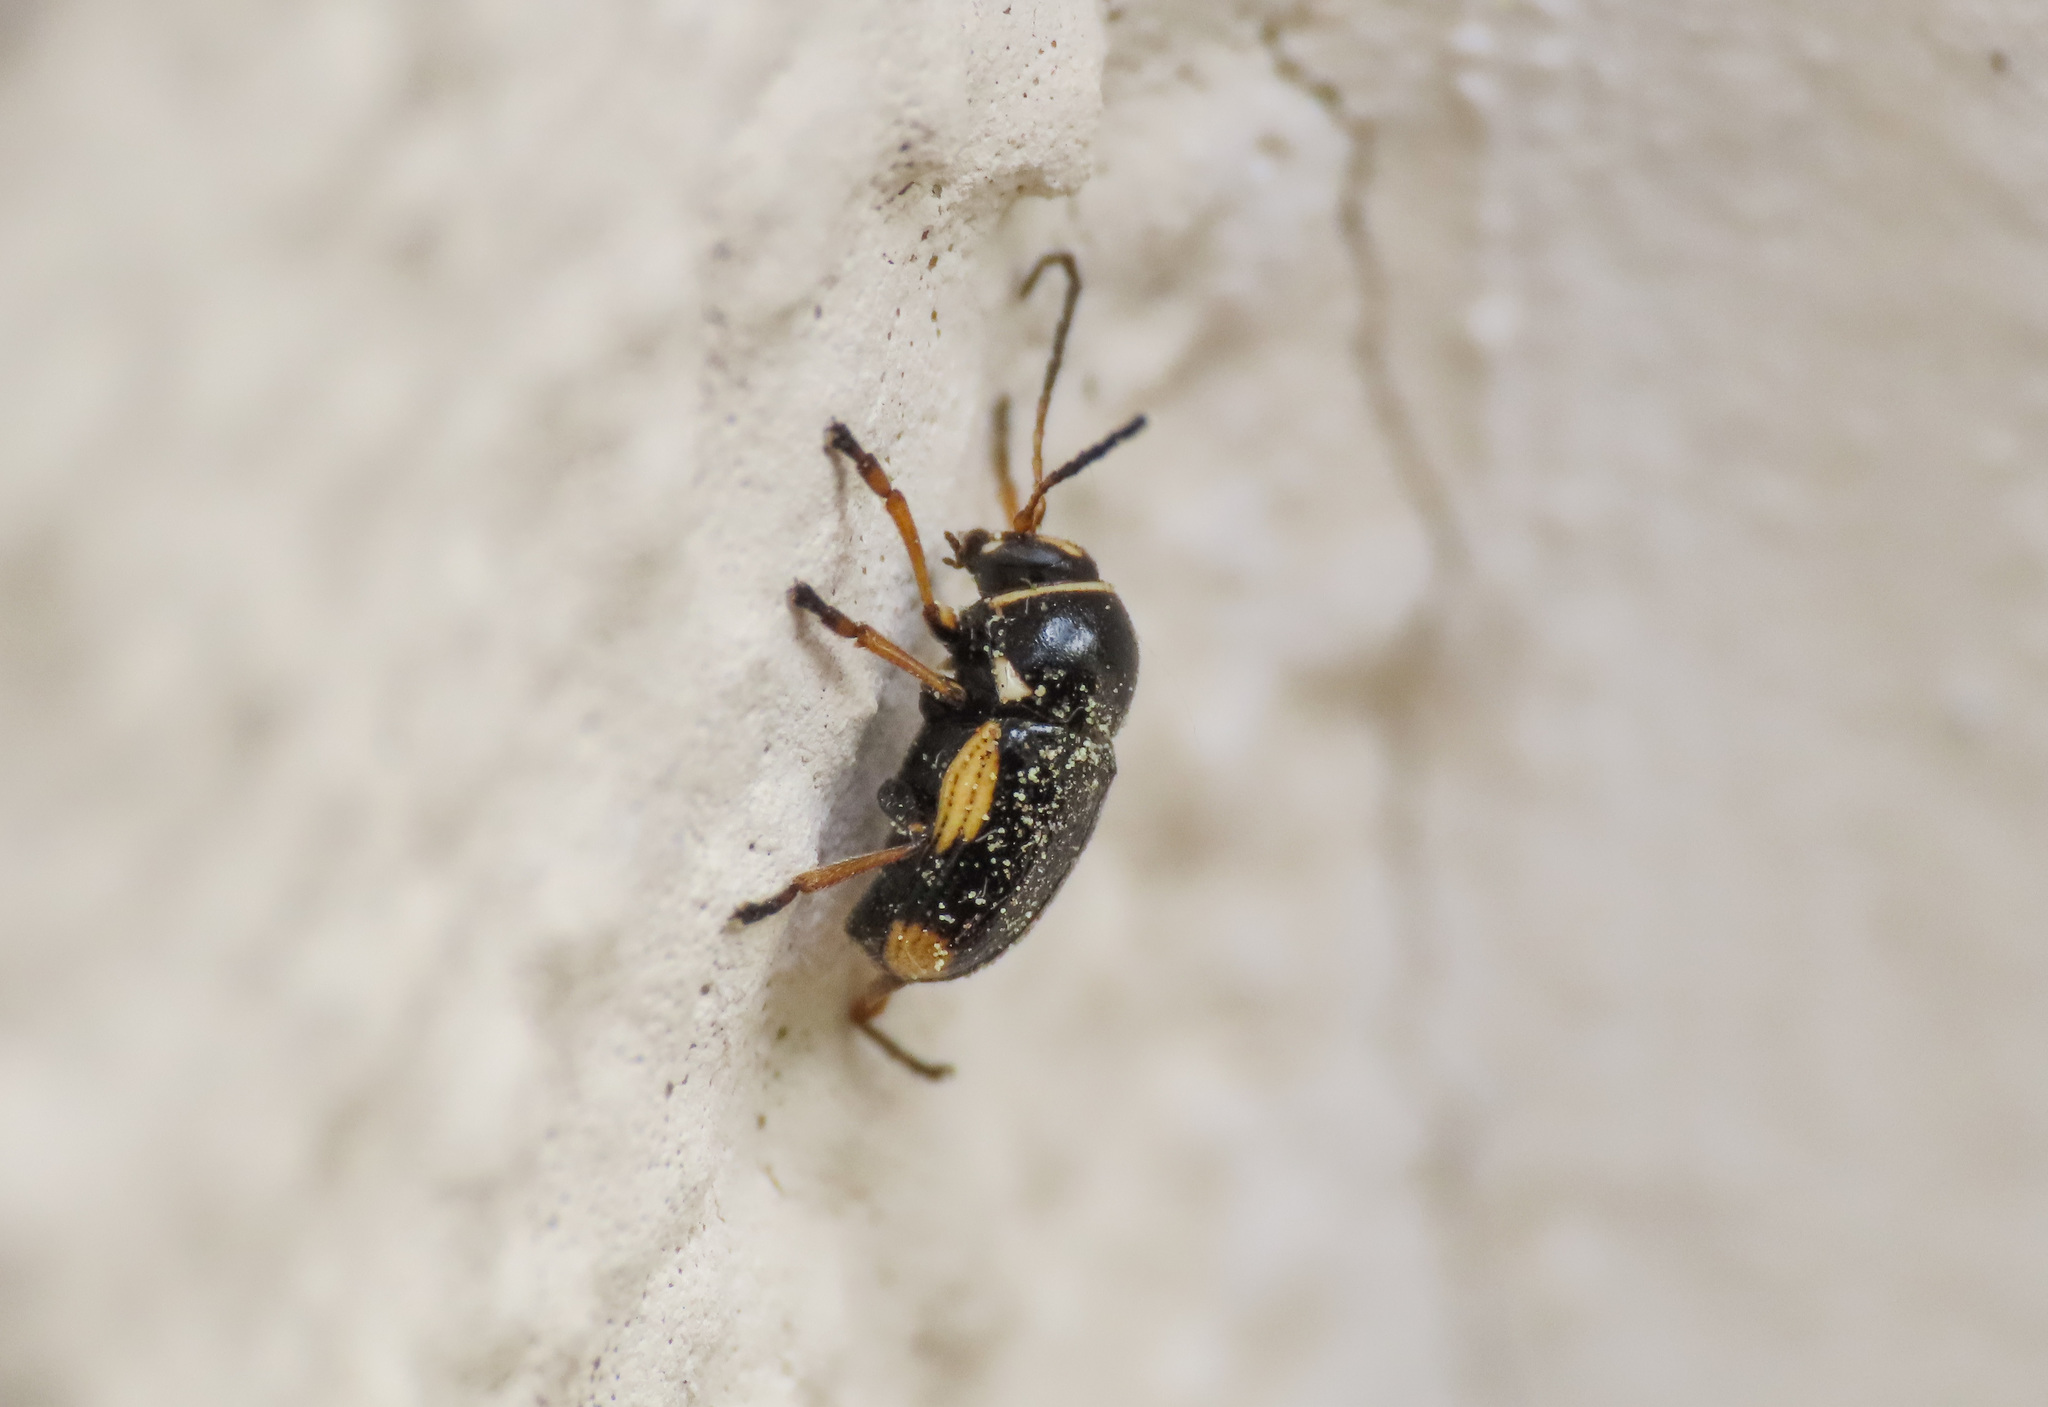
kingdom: Animalia
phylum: Arthropoda
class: Insecta
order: Coleoptera
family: Chrysomelidae
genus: Cryptocephalus
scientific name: Cryptocephalus moraei
